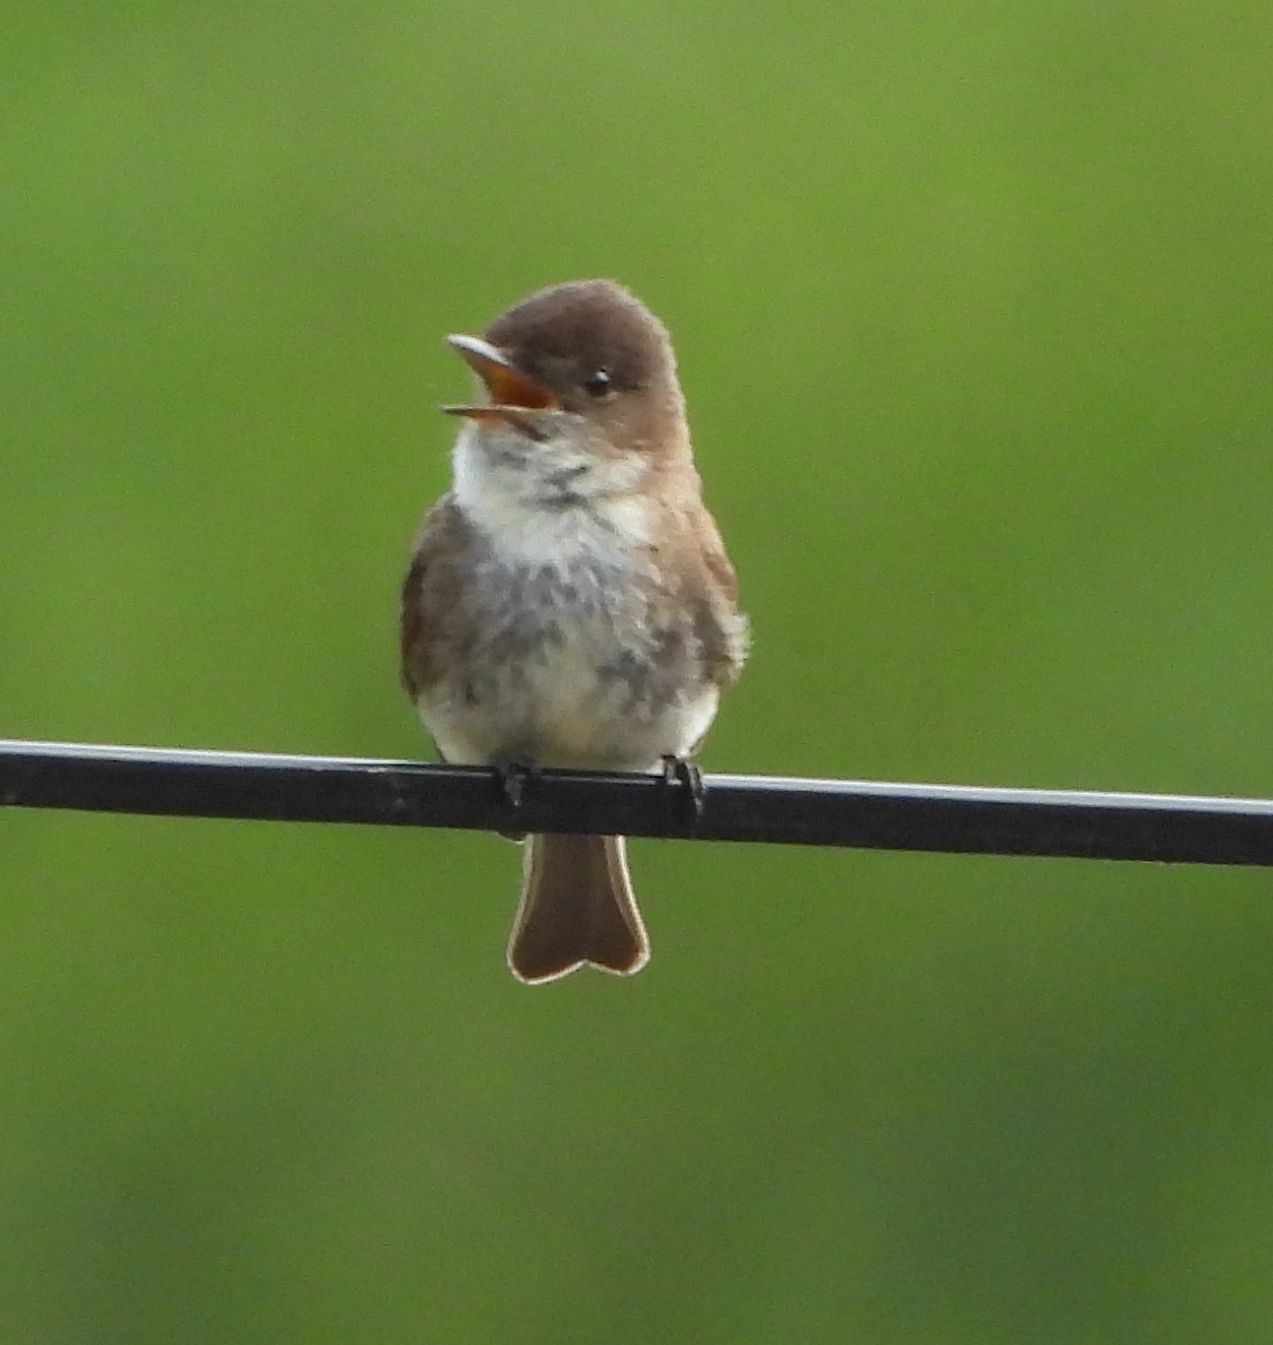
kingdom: Animalia
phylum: Chordata
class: Aves
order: Passeriformes
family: Tyrannidae
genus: Sayornis
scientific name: Sayornis phoebe
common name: Eastern phoebe
